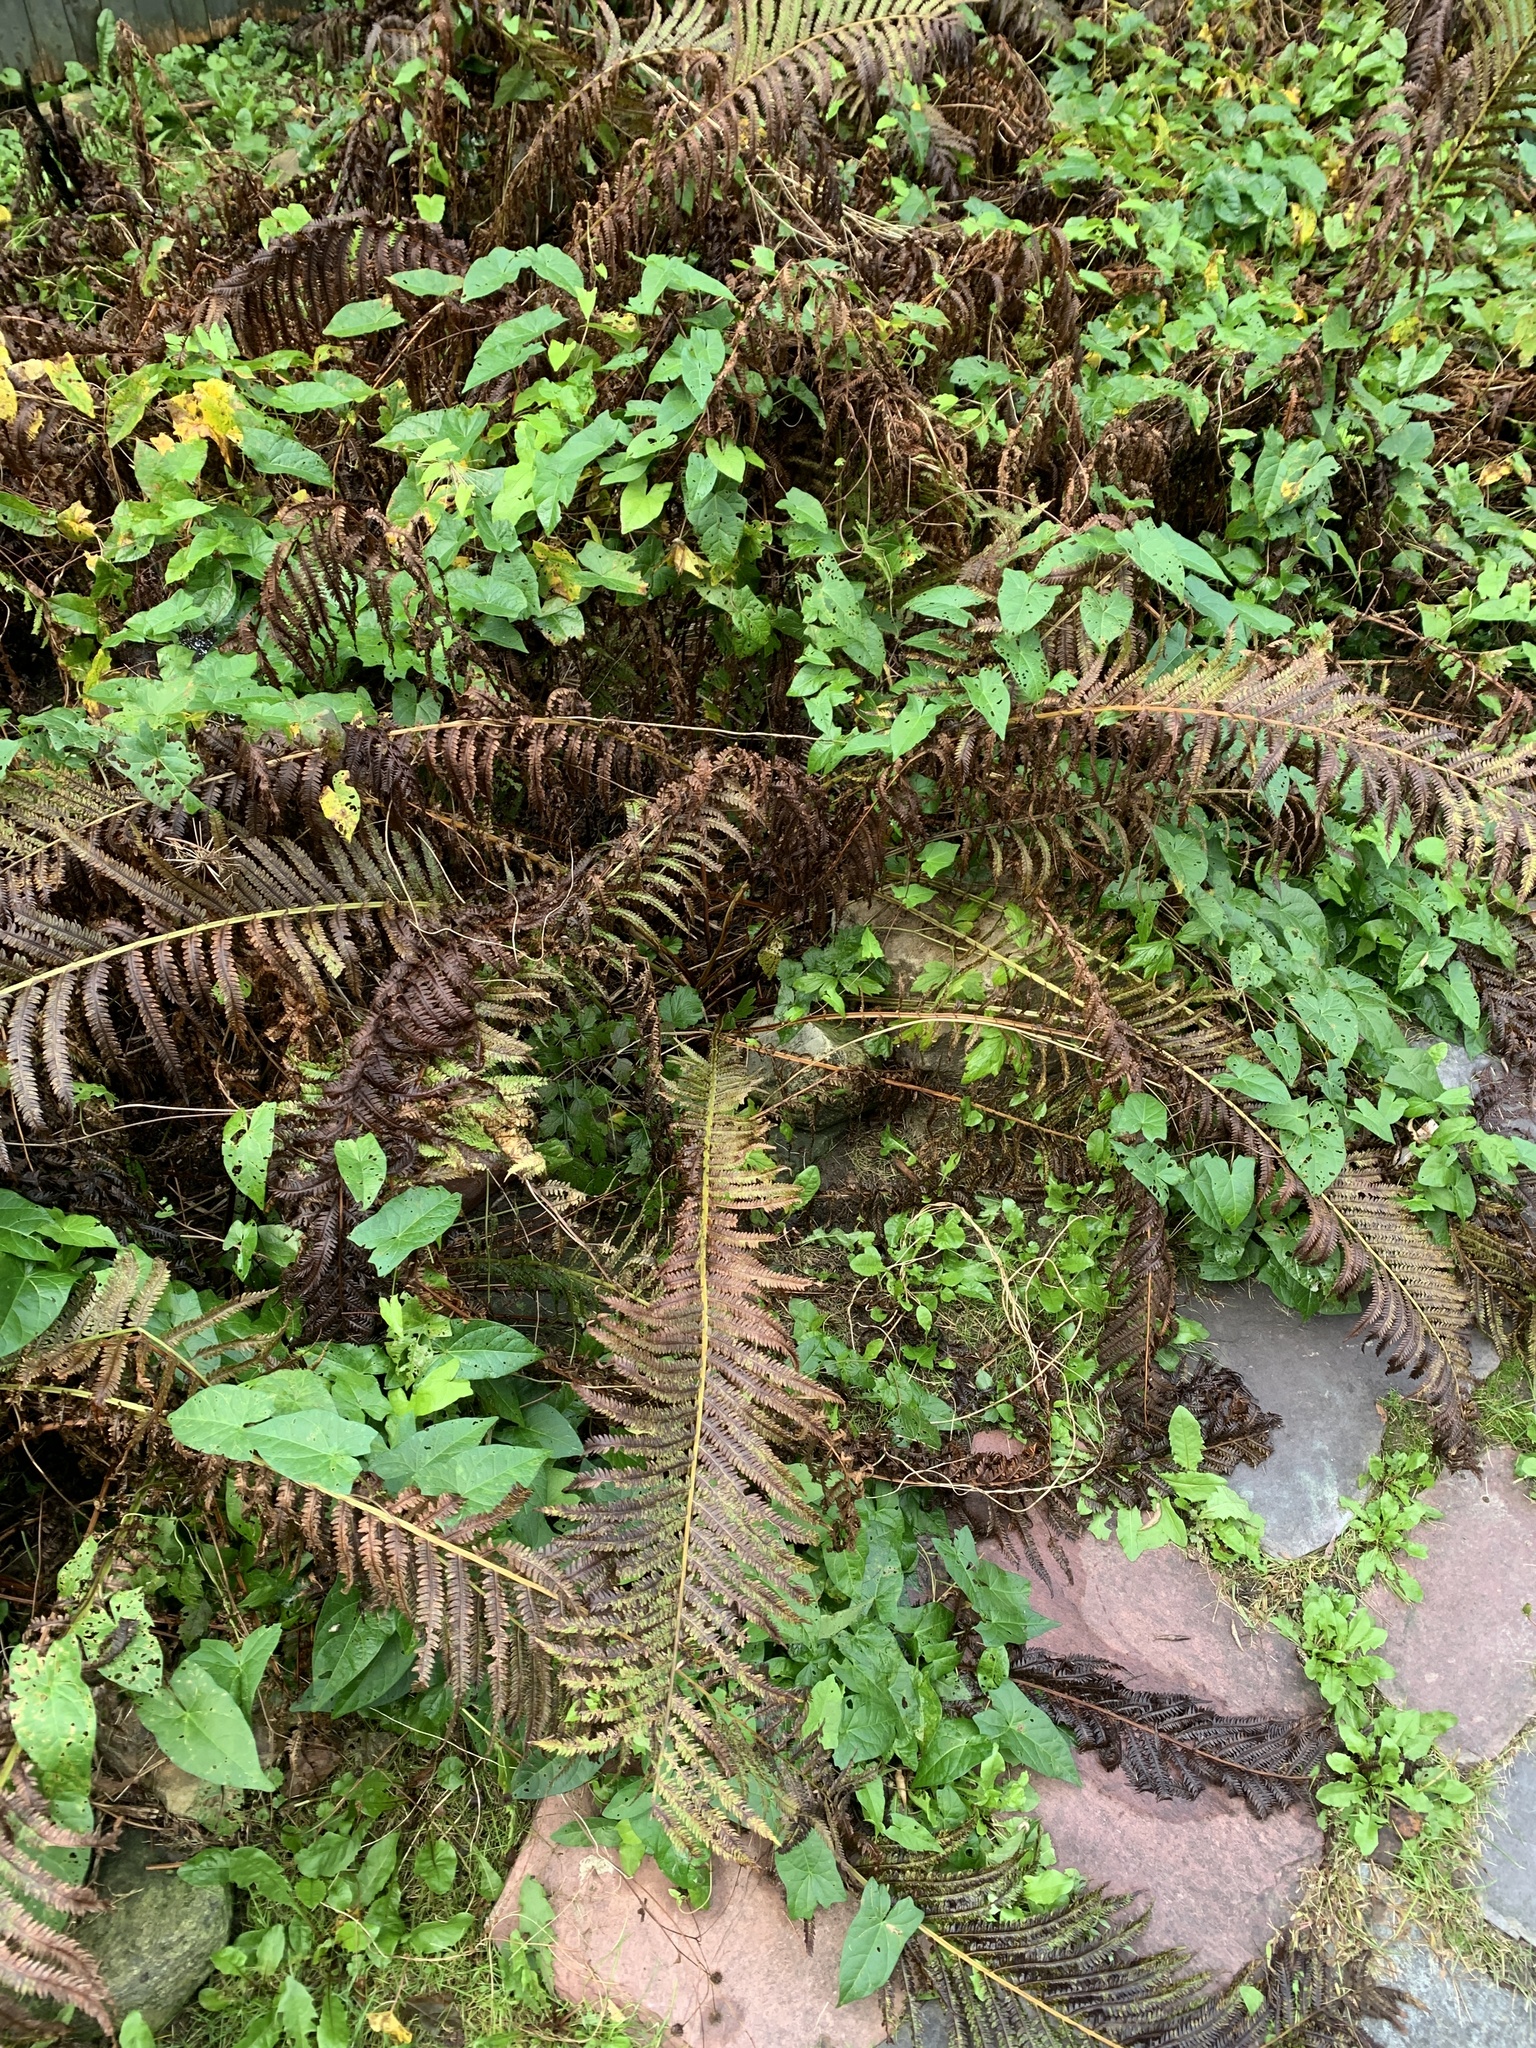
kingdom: Plantae
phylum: Tracheophyta
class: Polypodiopsida
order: Polypodiales
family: Onocleaceae
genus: Matteuccia
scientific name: Matteuccia struthiopteris
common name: Ostrich fern
